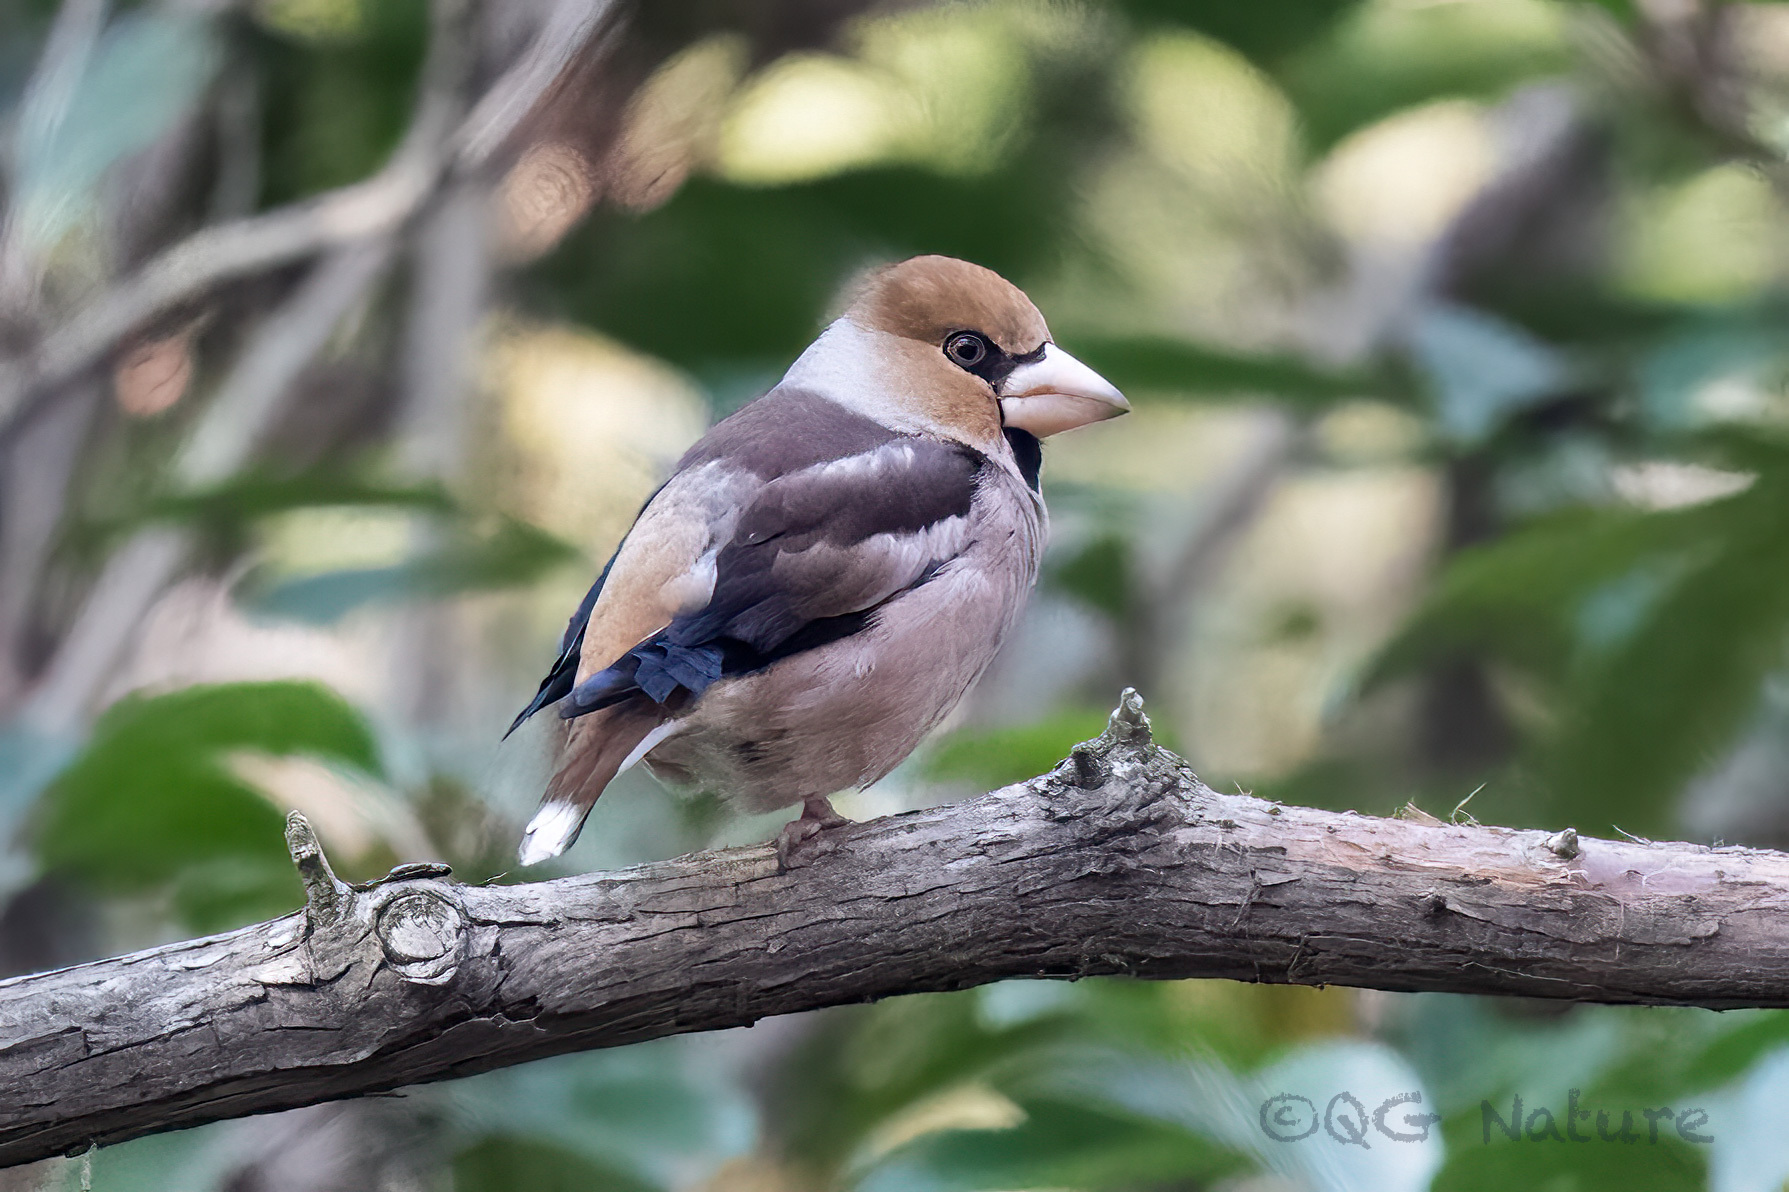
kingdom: Animalia
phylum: Chordata
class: Aves
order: Passeriformes
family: Fringillidae
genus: Coccothraustes
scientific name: Coccothraustes coccothraustes
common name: Hawfinch
